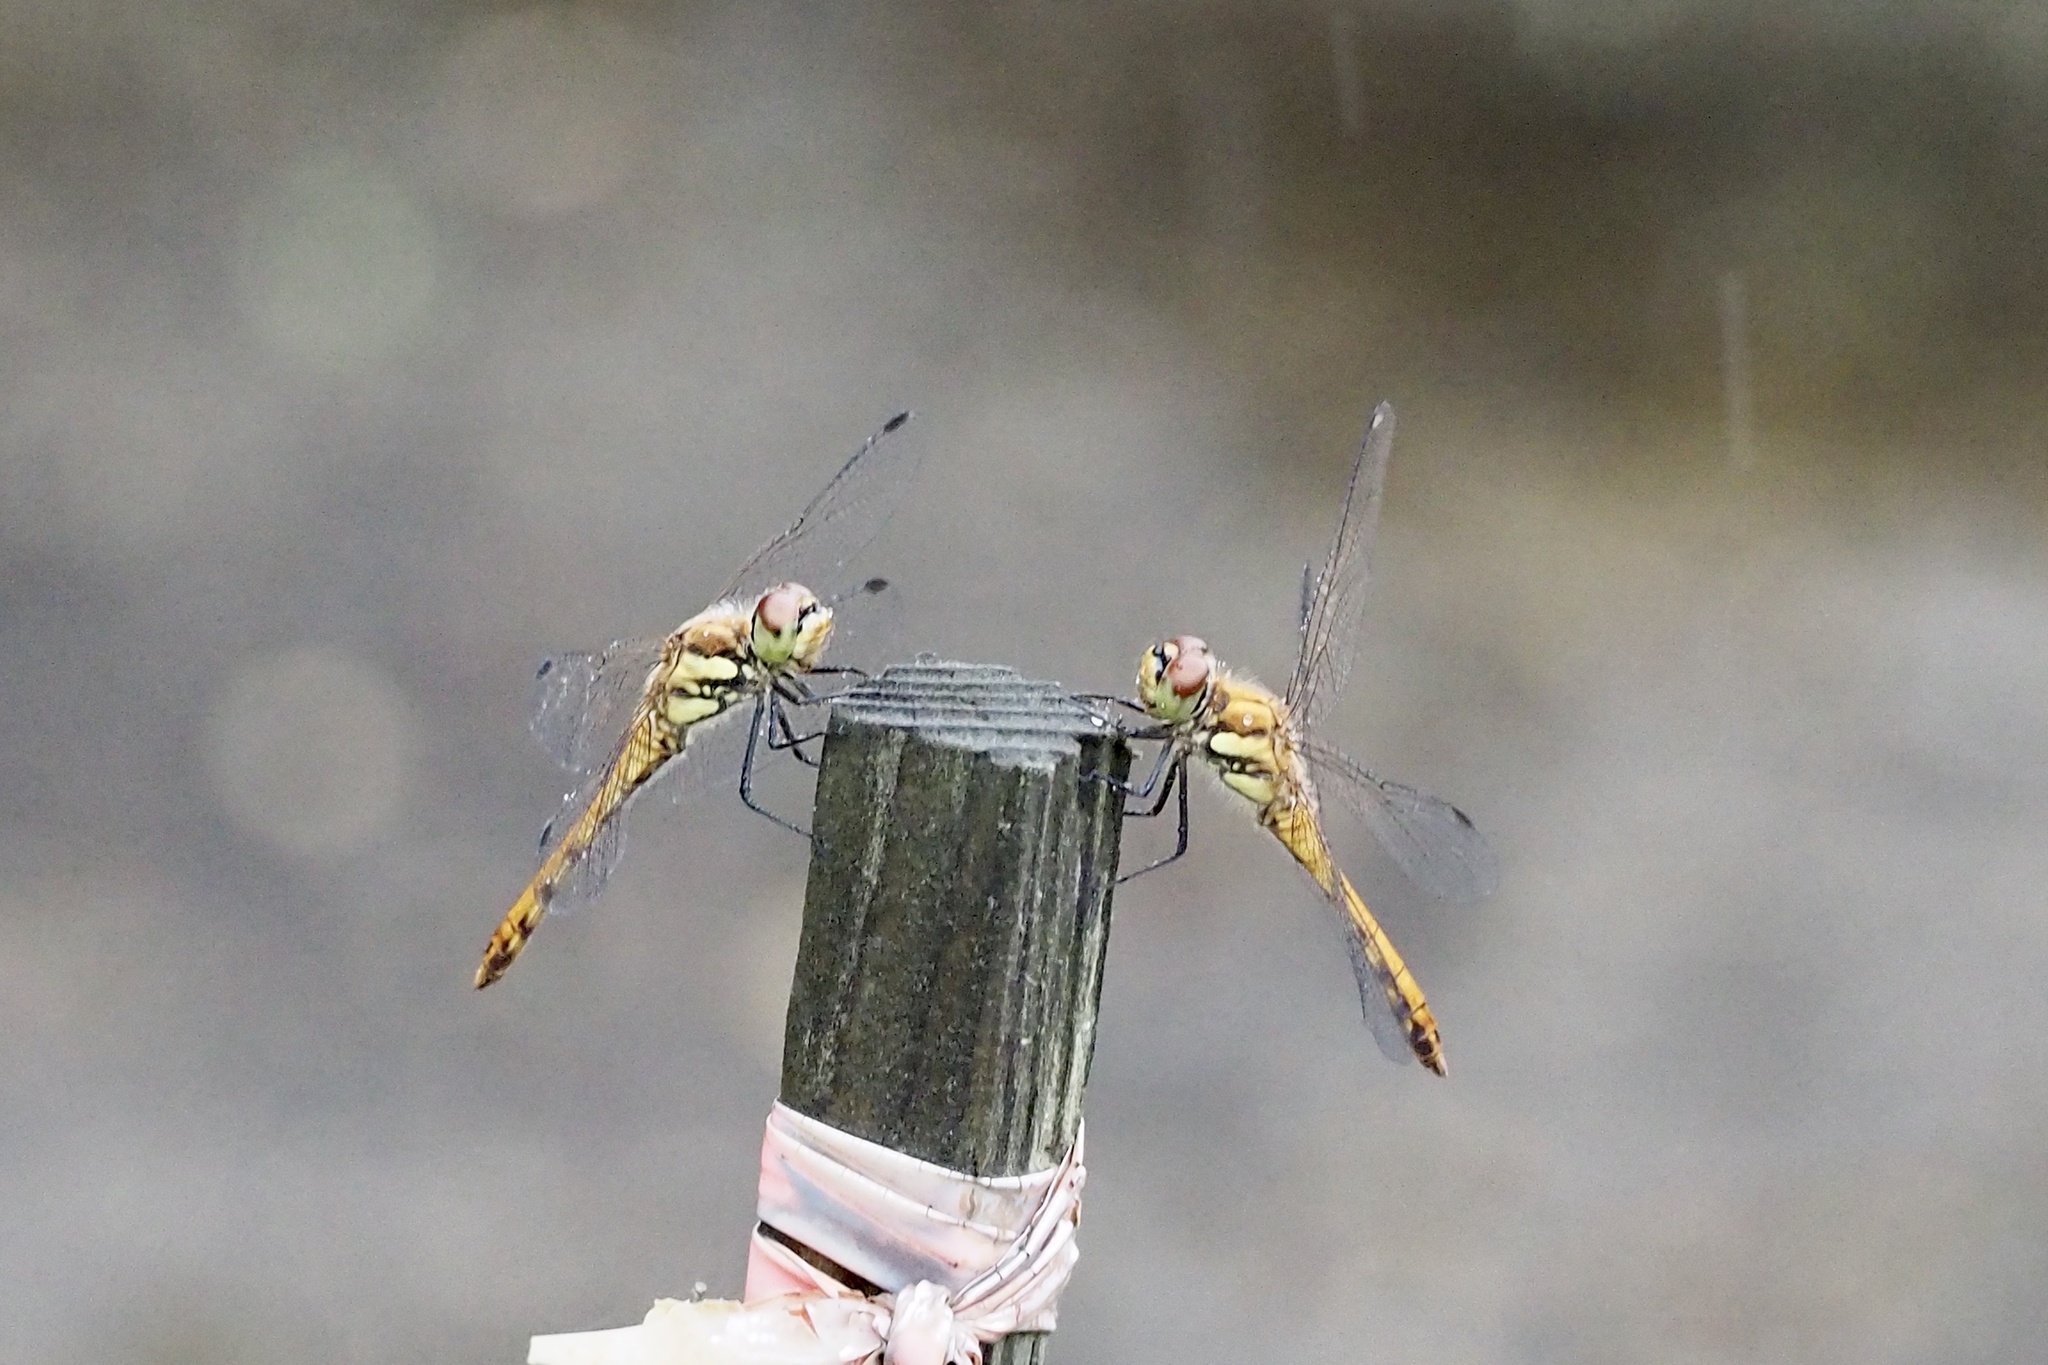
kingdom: Animalia
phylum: Arthropoda
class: Insecta
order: Odonata
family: Libellulidae
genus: Sympetrum
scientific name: Sympetrum frequens
